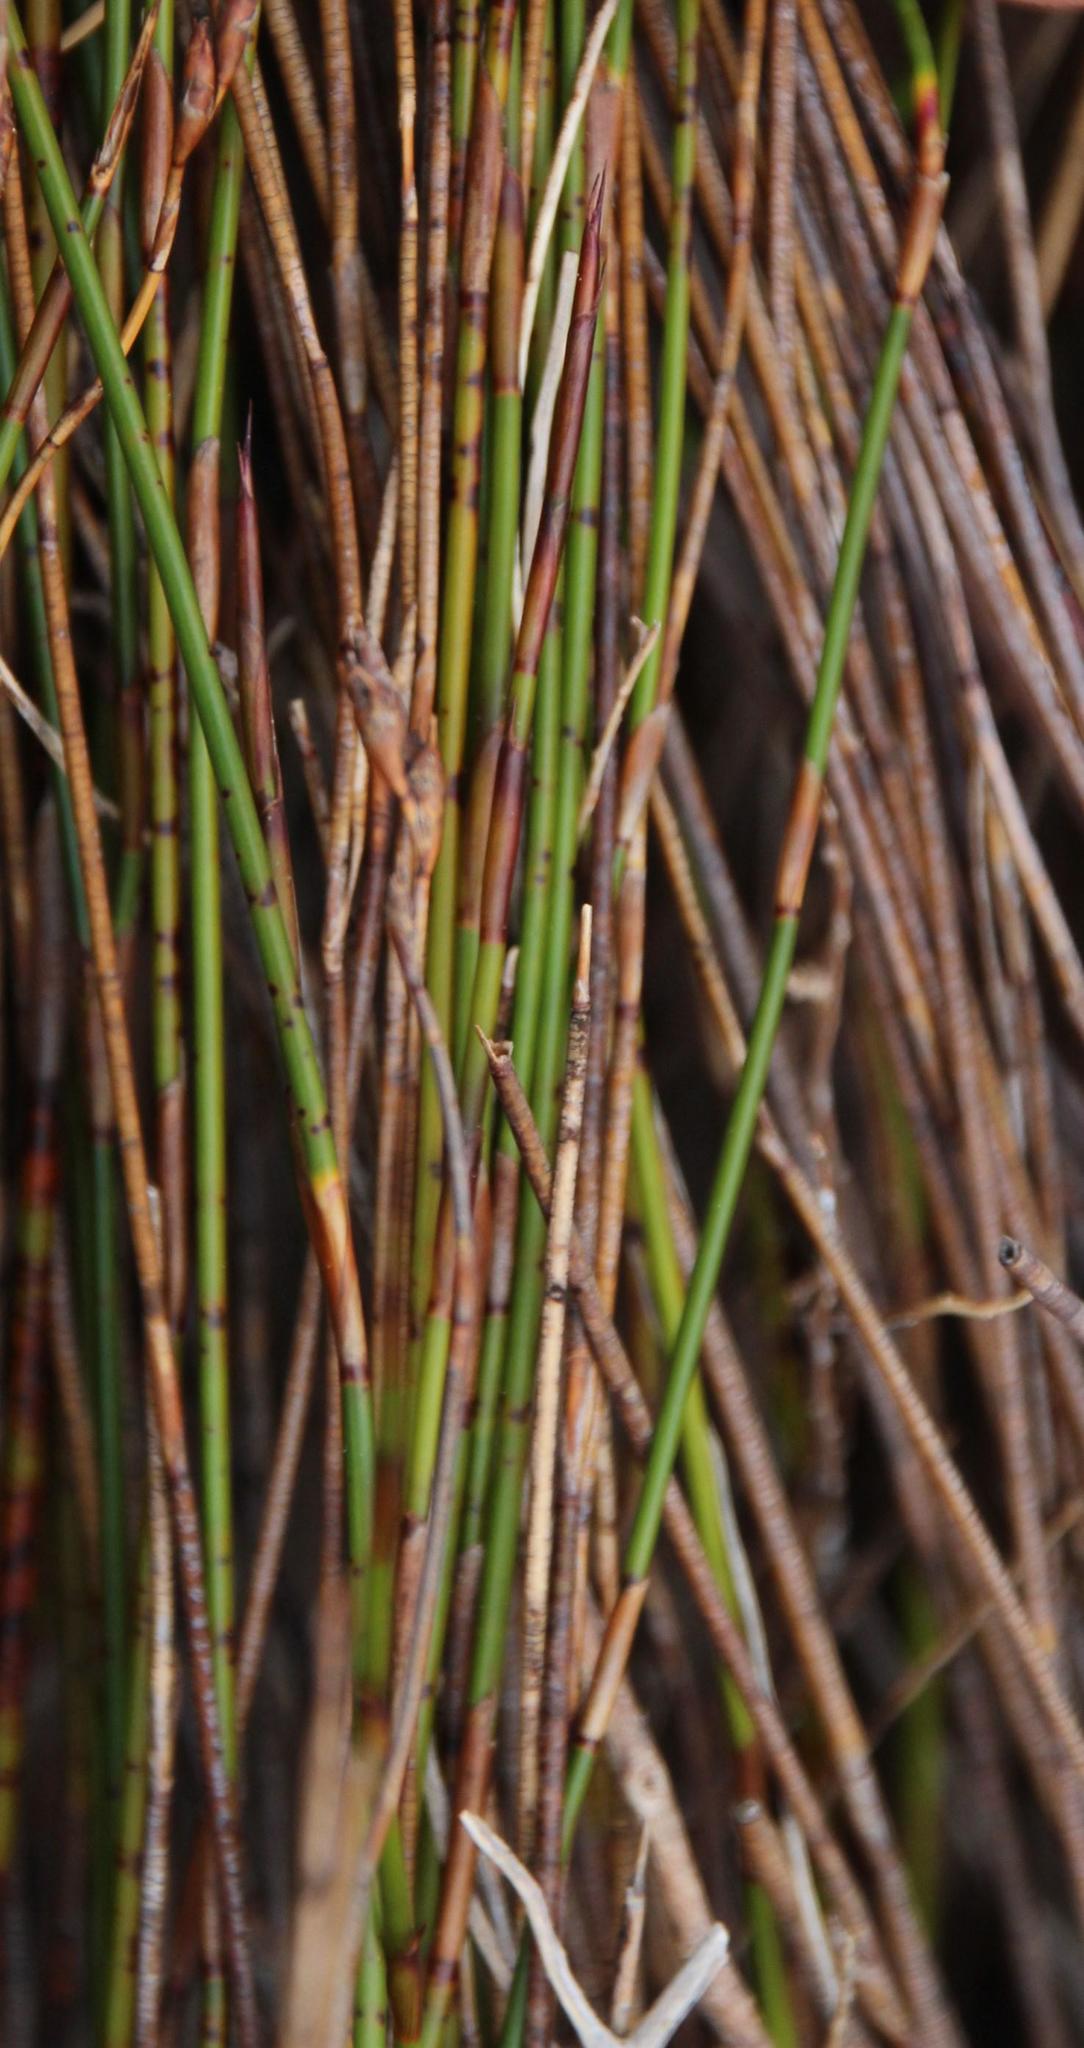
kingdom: Plantae
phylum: Tracheophyta
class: Liliopsida
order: Poales
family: Restionaceae
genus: Restio
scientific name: Restio monanthos
